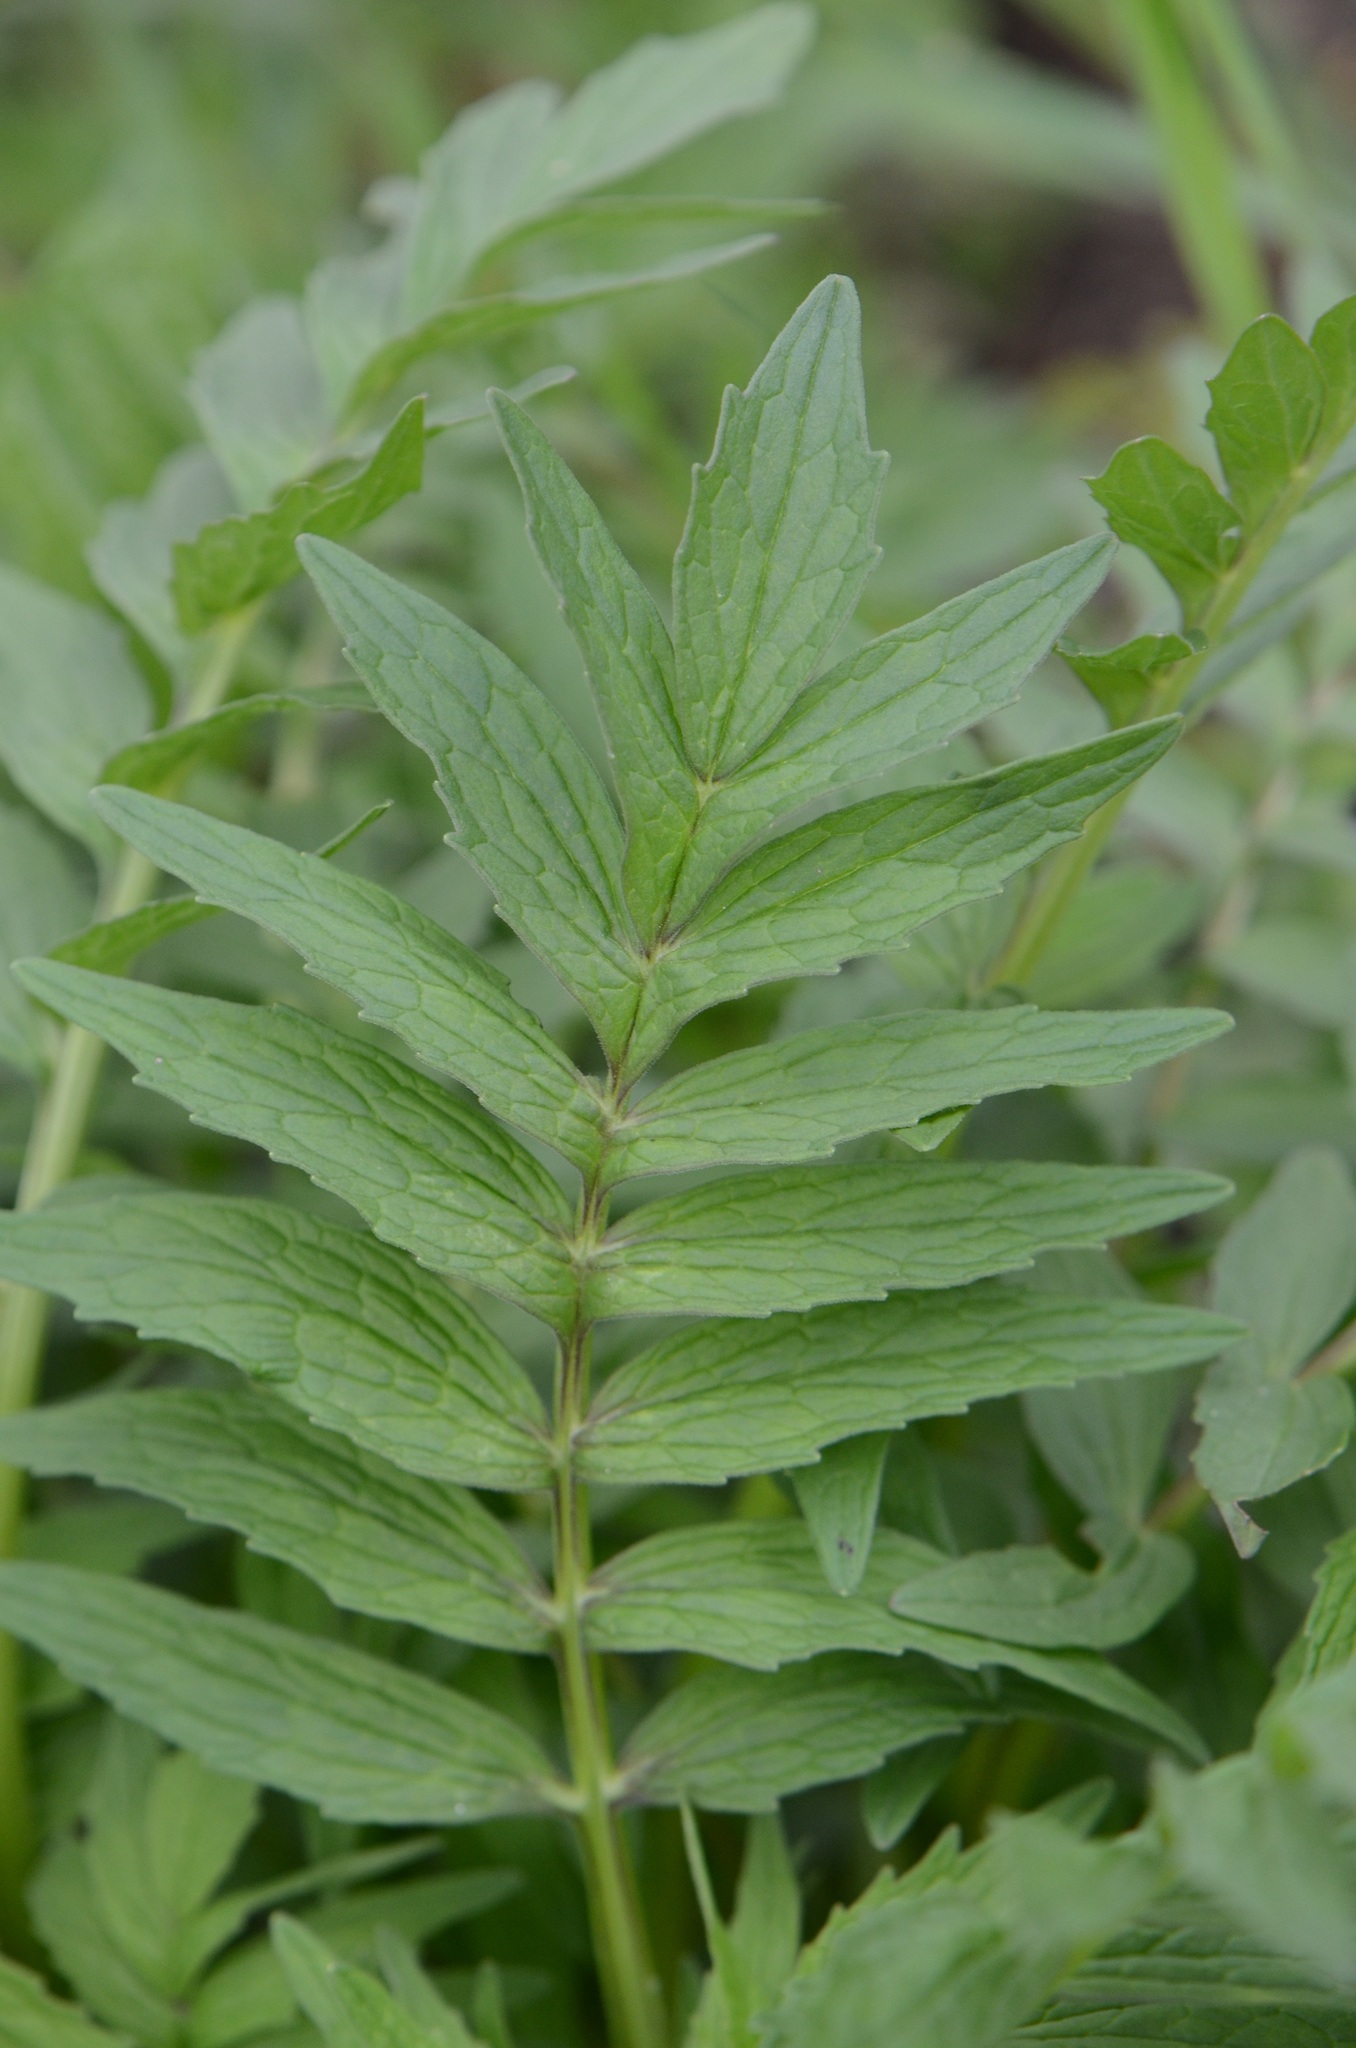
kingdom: Plantae
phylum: Tracheophyta
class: Magnoliopsida
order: Dipsacales
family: Caprifoliaceae
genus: Valeriana
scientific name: Valeriana officinalis
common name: Common valerian
